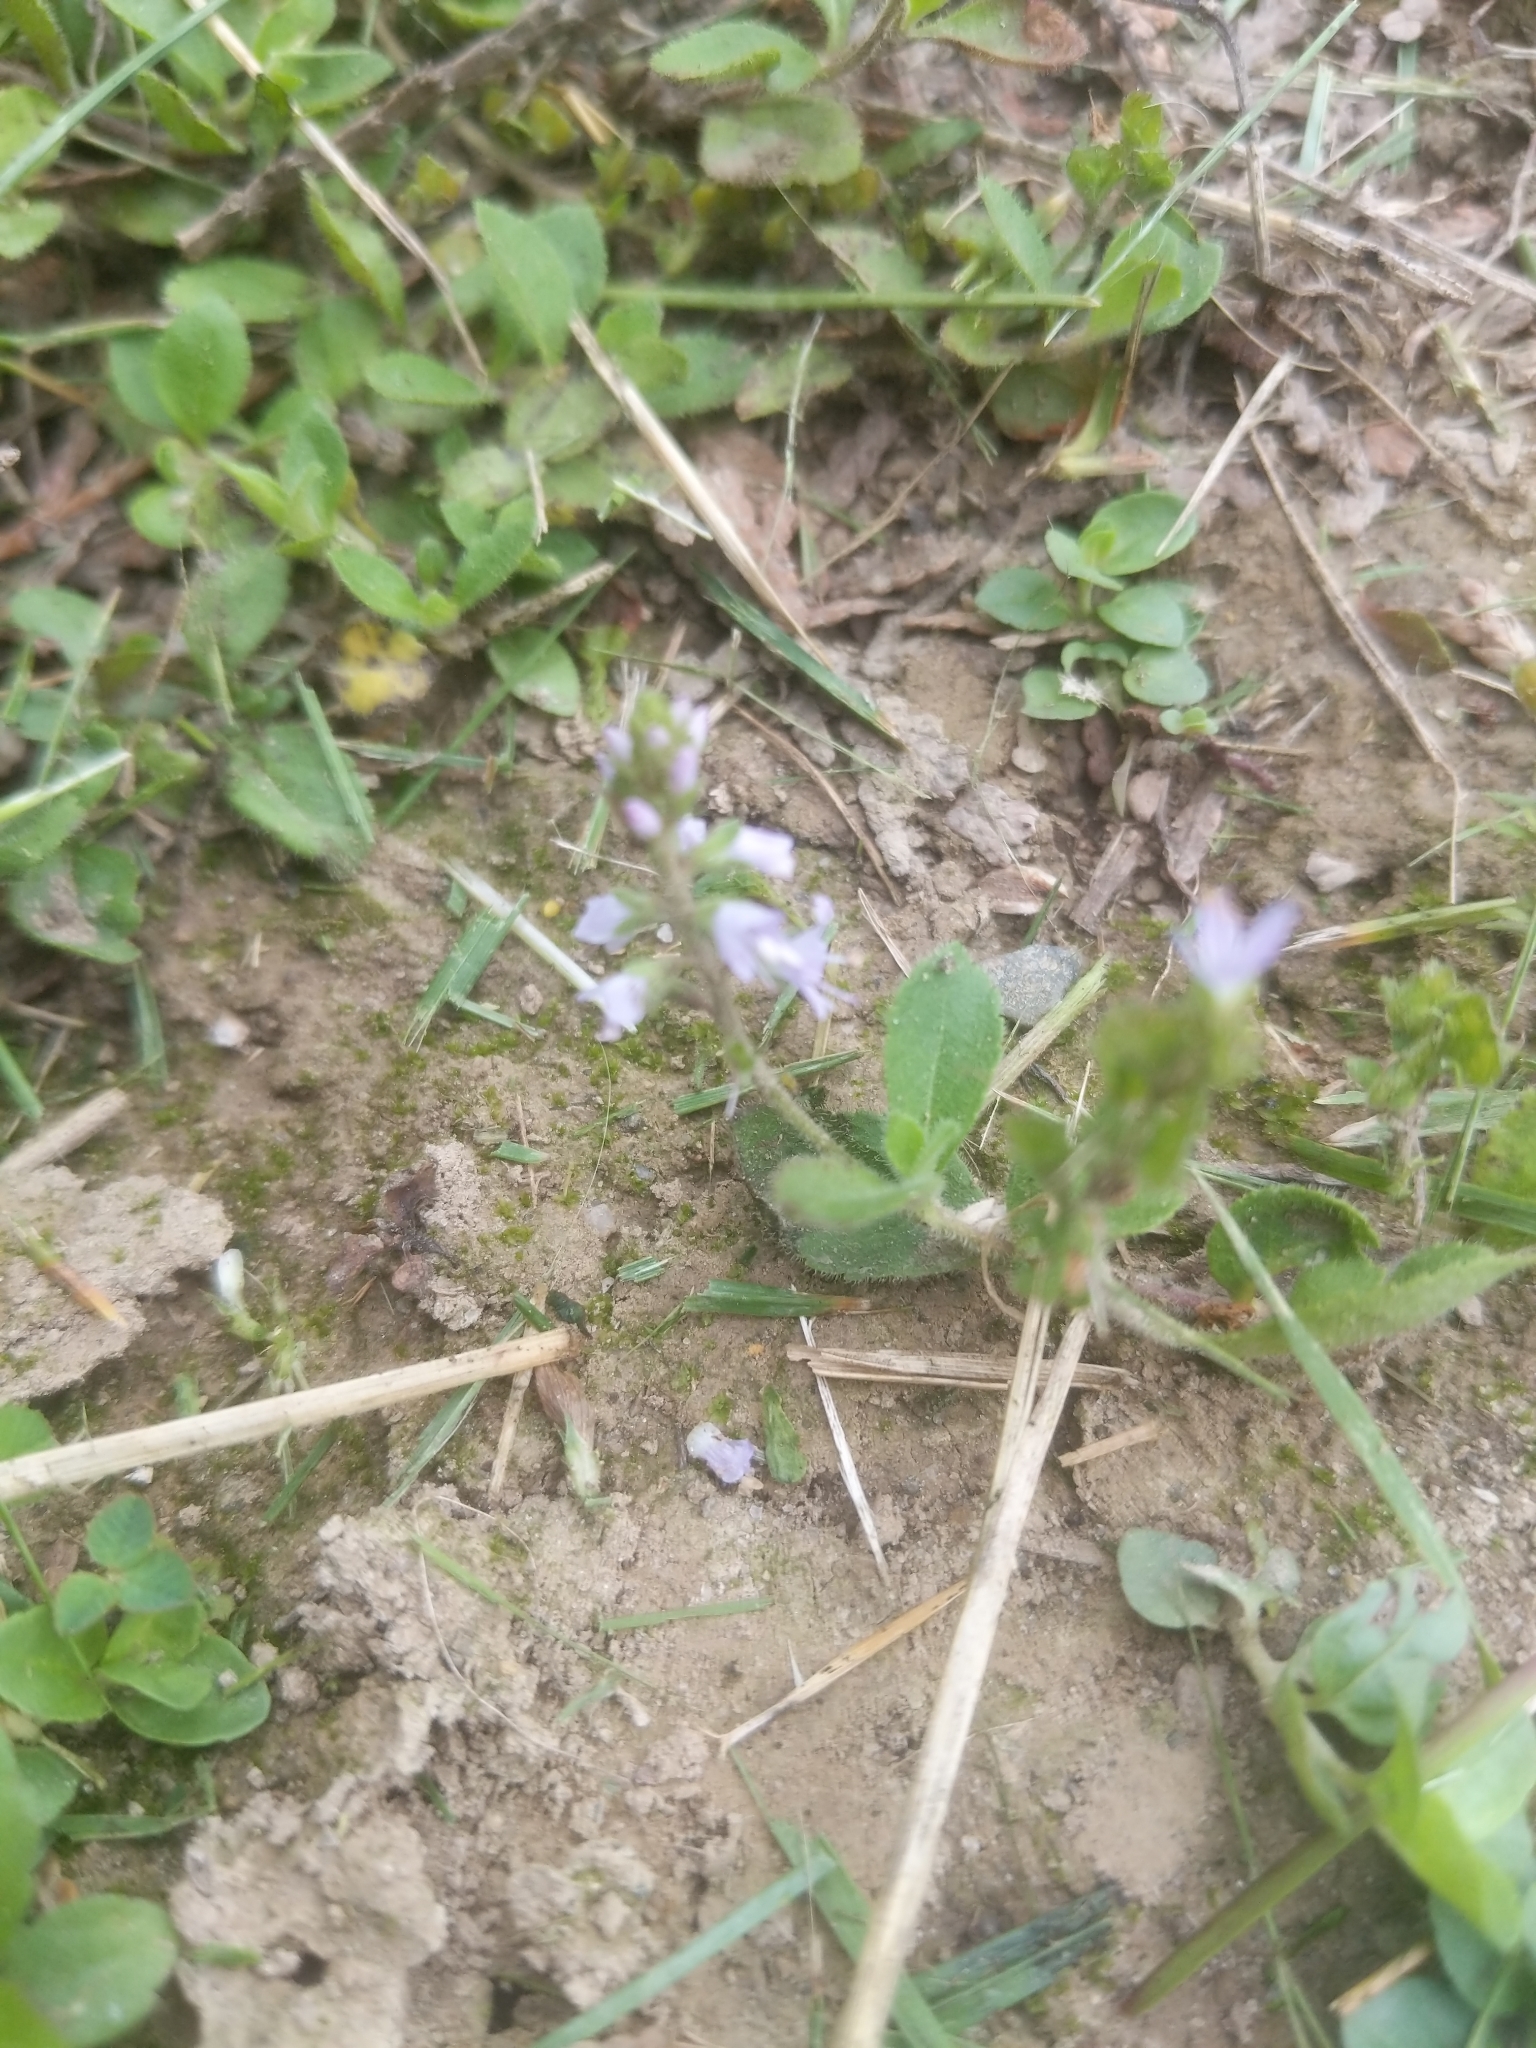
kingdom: Plantae
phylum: Tracheophyta
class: Magnoliopsida
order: Lamiales
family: Plantaginaceae
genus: Veronica
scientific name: Veronica officinalis
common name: Common speedwell
